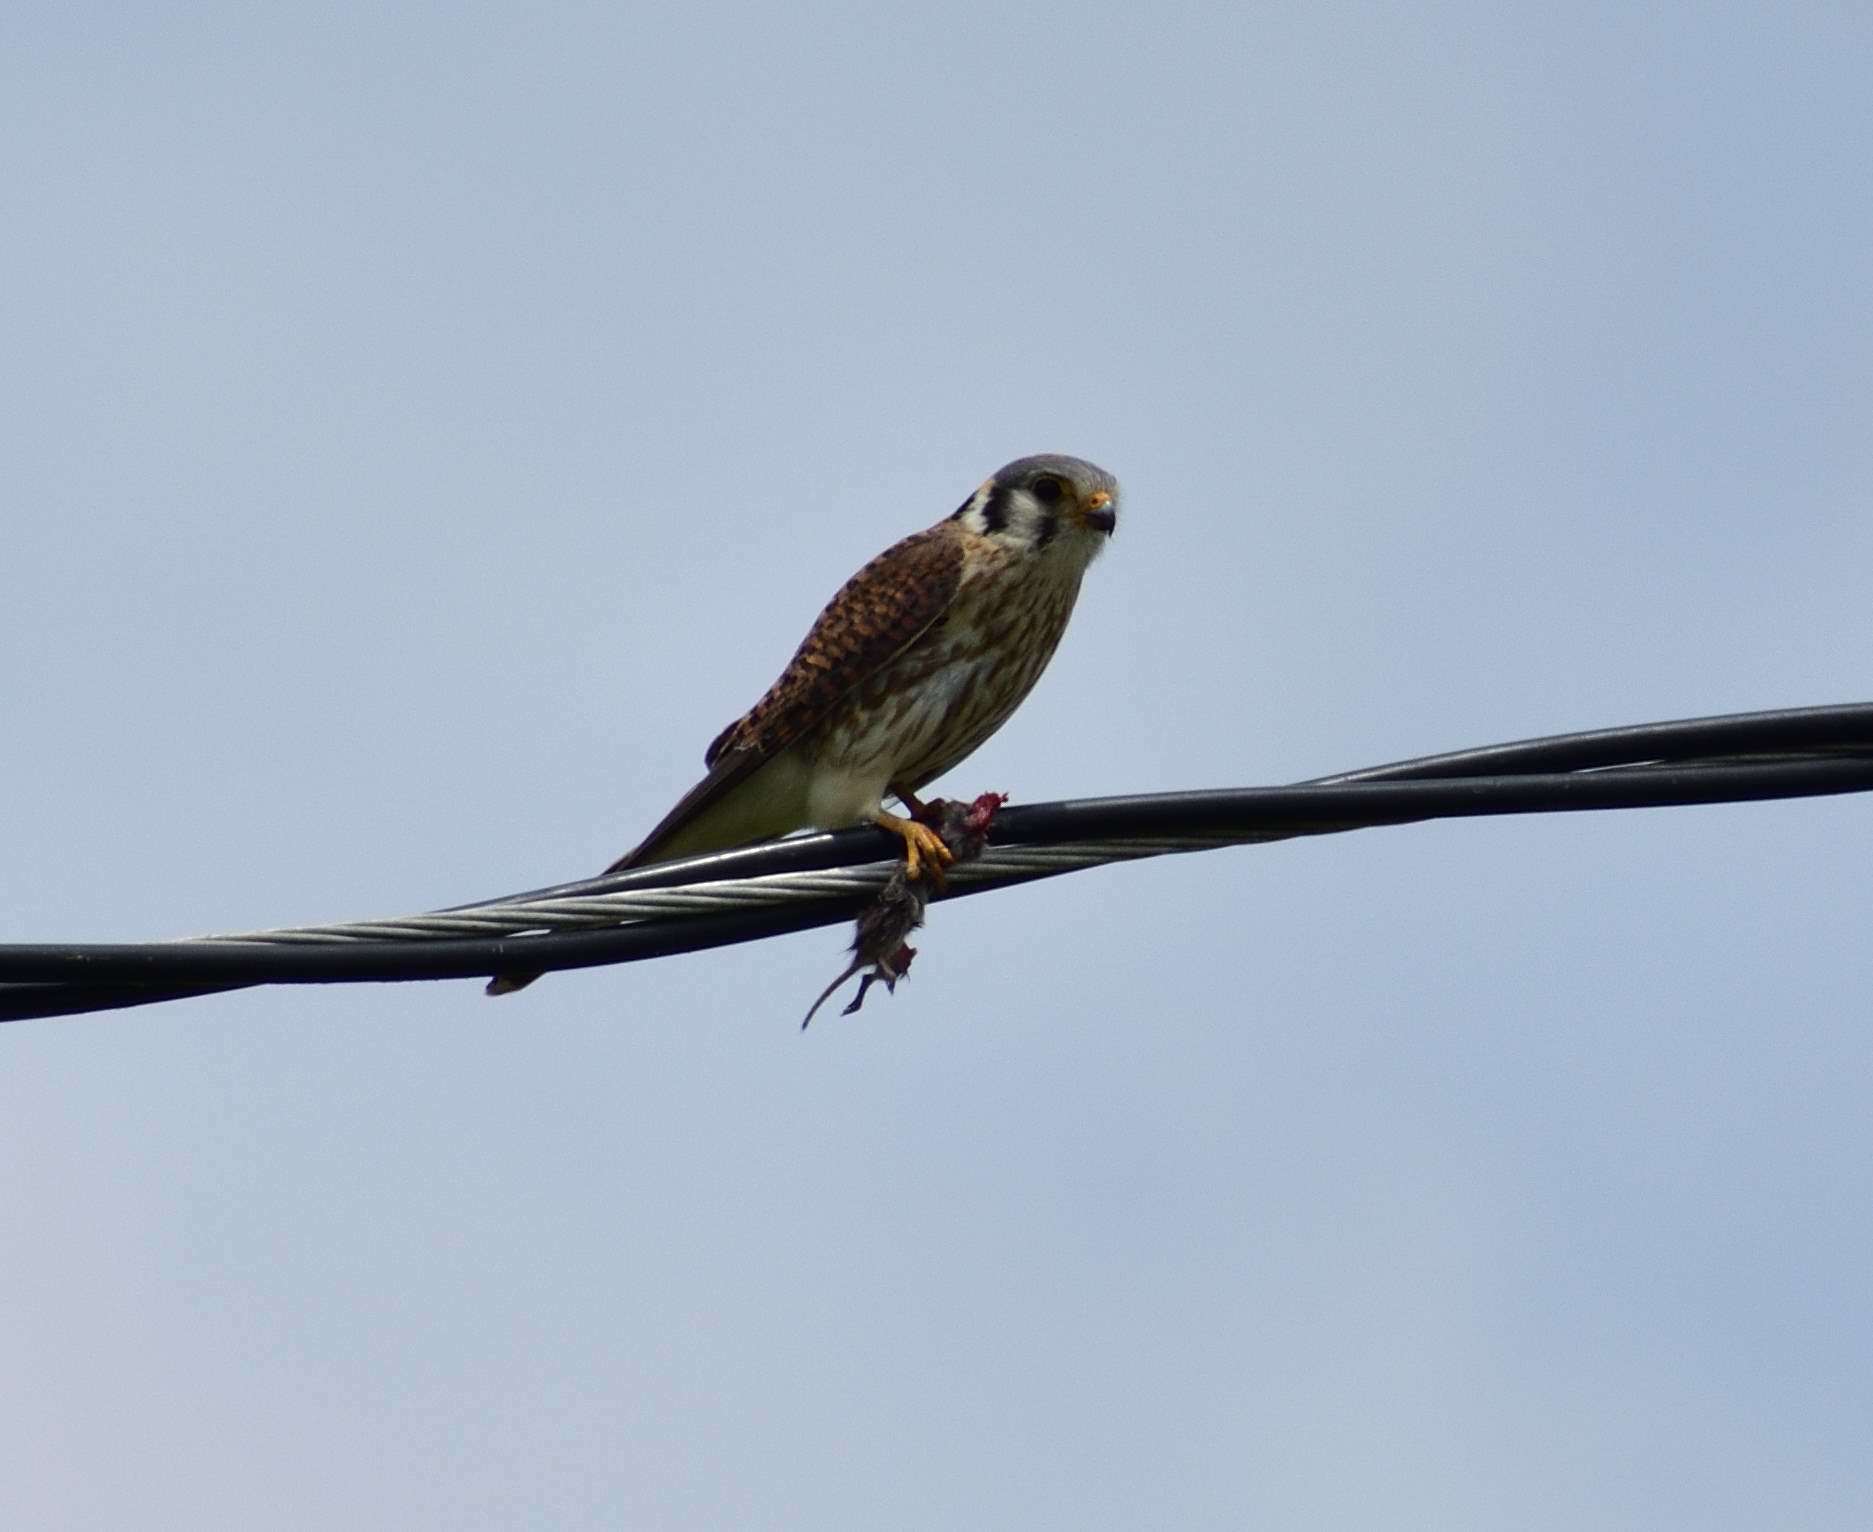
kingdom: Animalia
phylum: Chordata
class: Aves
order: Falconiformes
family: Falconidae
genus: Falco
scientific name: Falco sparverius
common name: American kestrel
